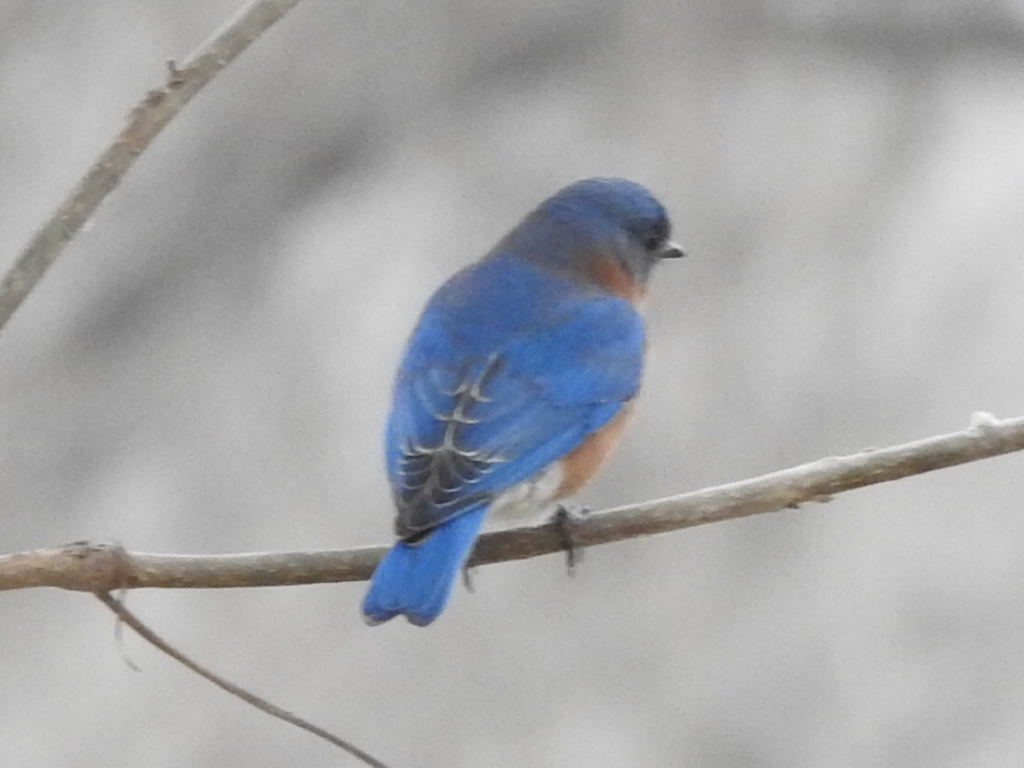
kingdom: Animalia
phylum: Chordata
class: Aves
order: Passeriformes
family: Turdidae
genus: Sialia
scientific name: Sialia sialis
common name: Eastern bluebird
